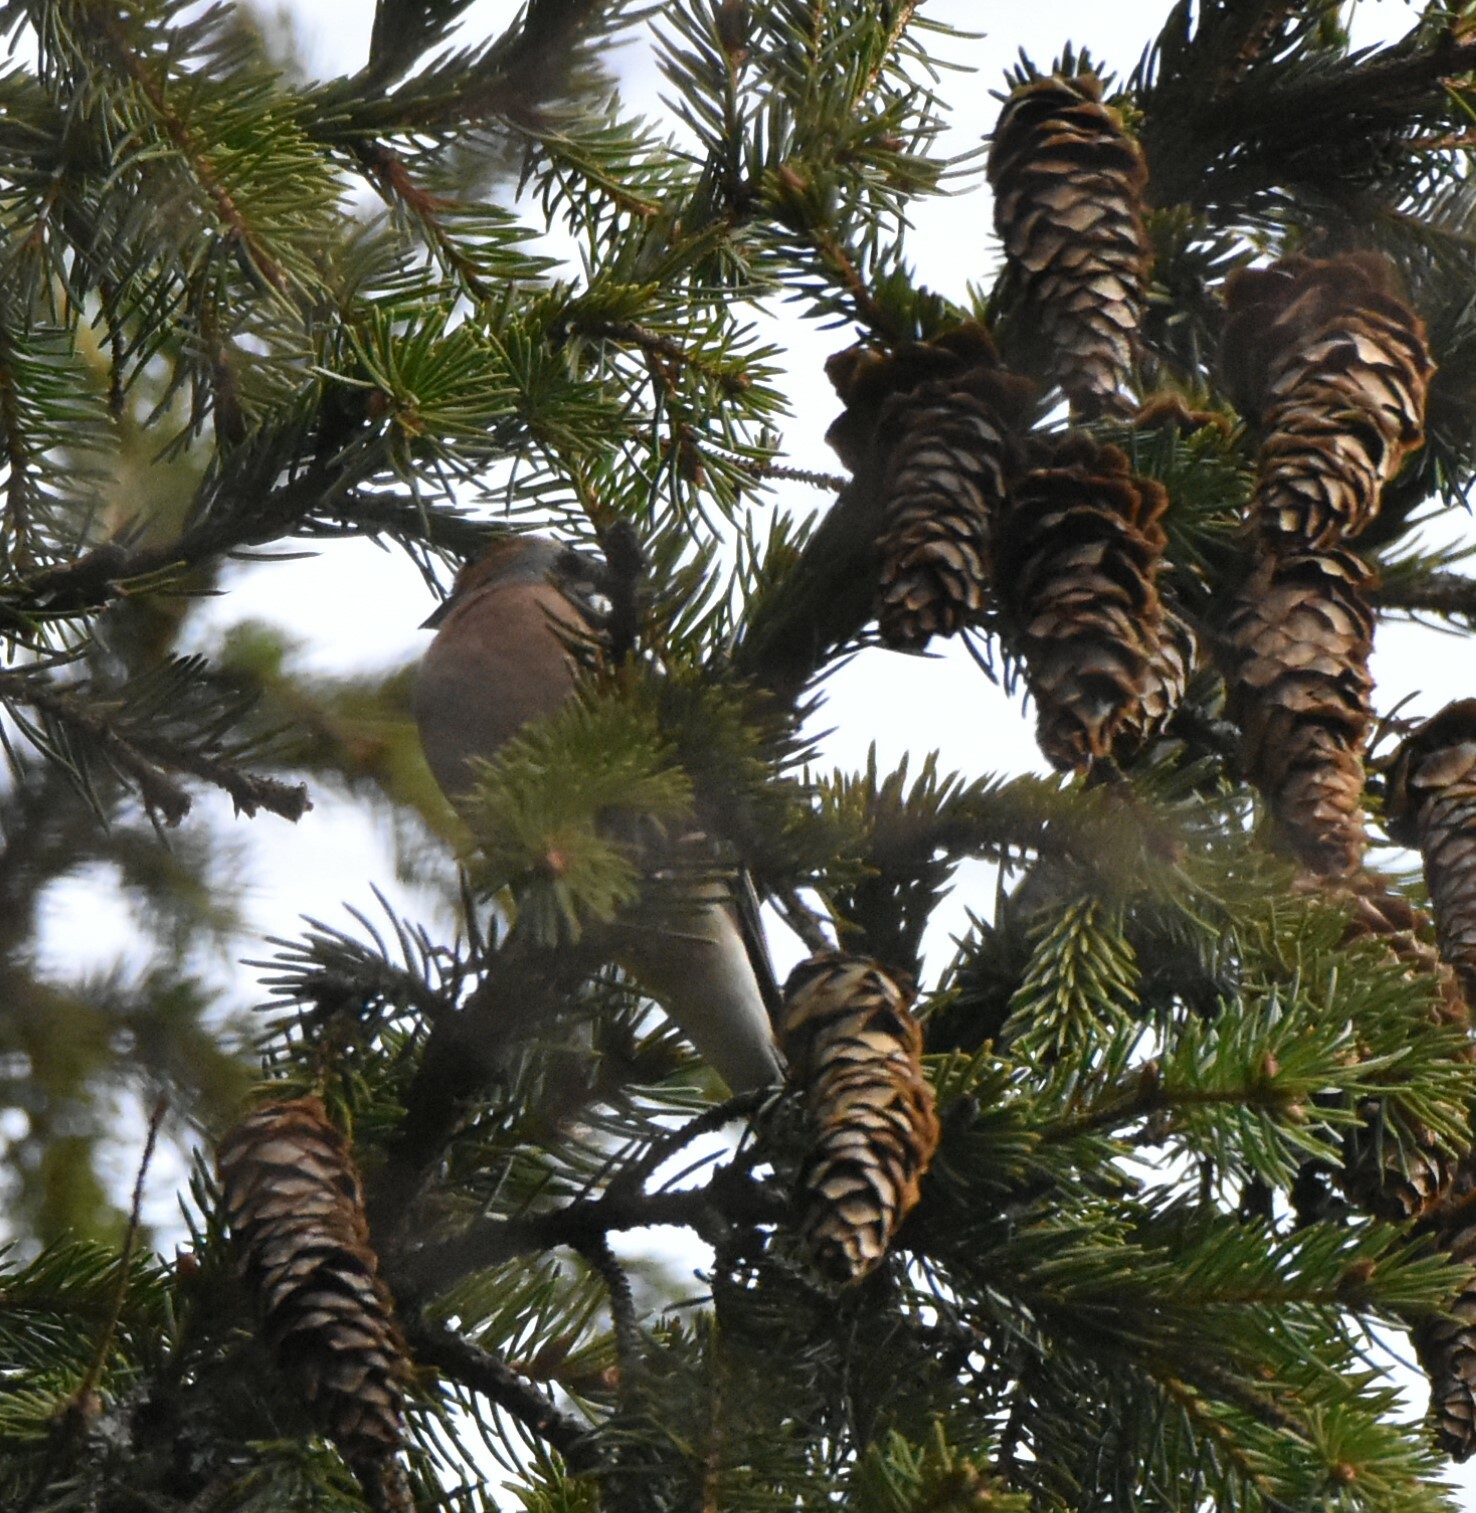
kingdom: Animalia
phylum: Chordata
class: Aves
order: Passeriformes
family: Fringillidae
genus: Fringilla
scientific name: Fringilla coelebs
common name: Common chaffinch
